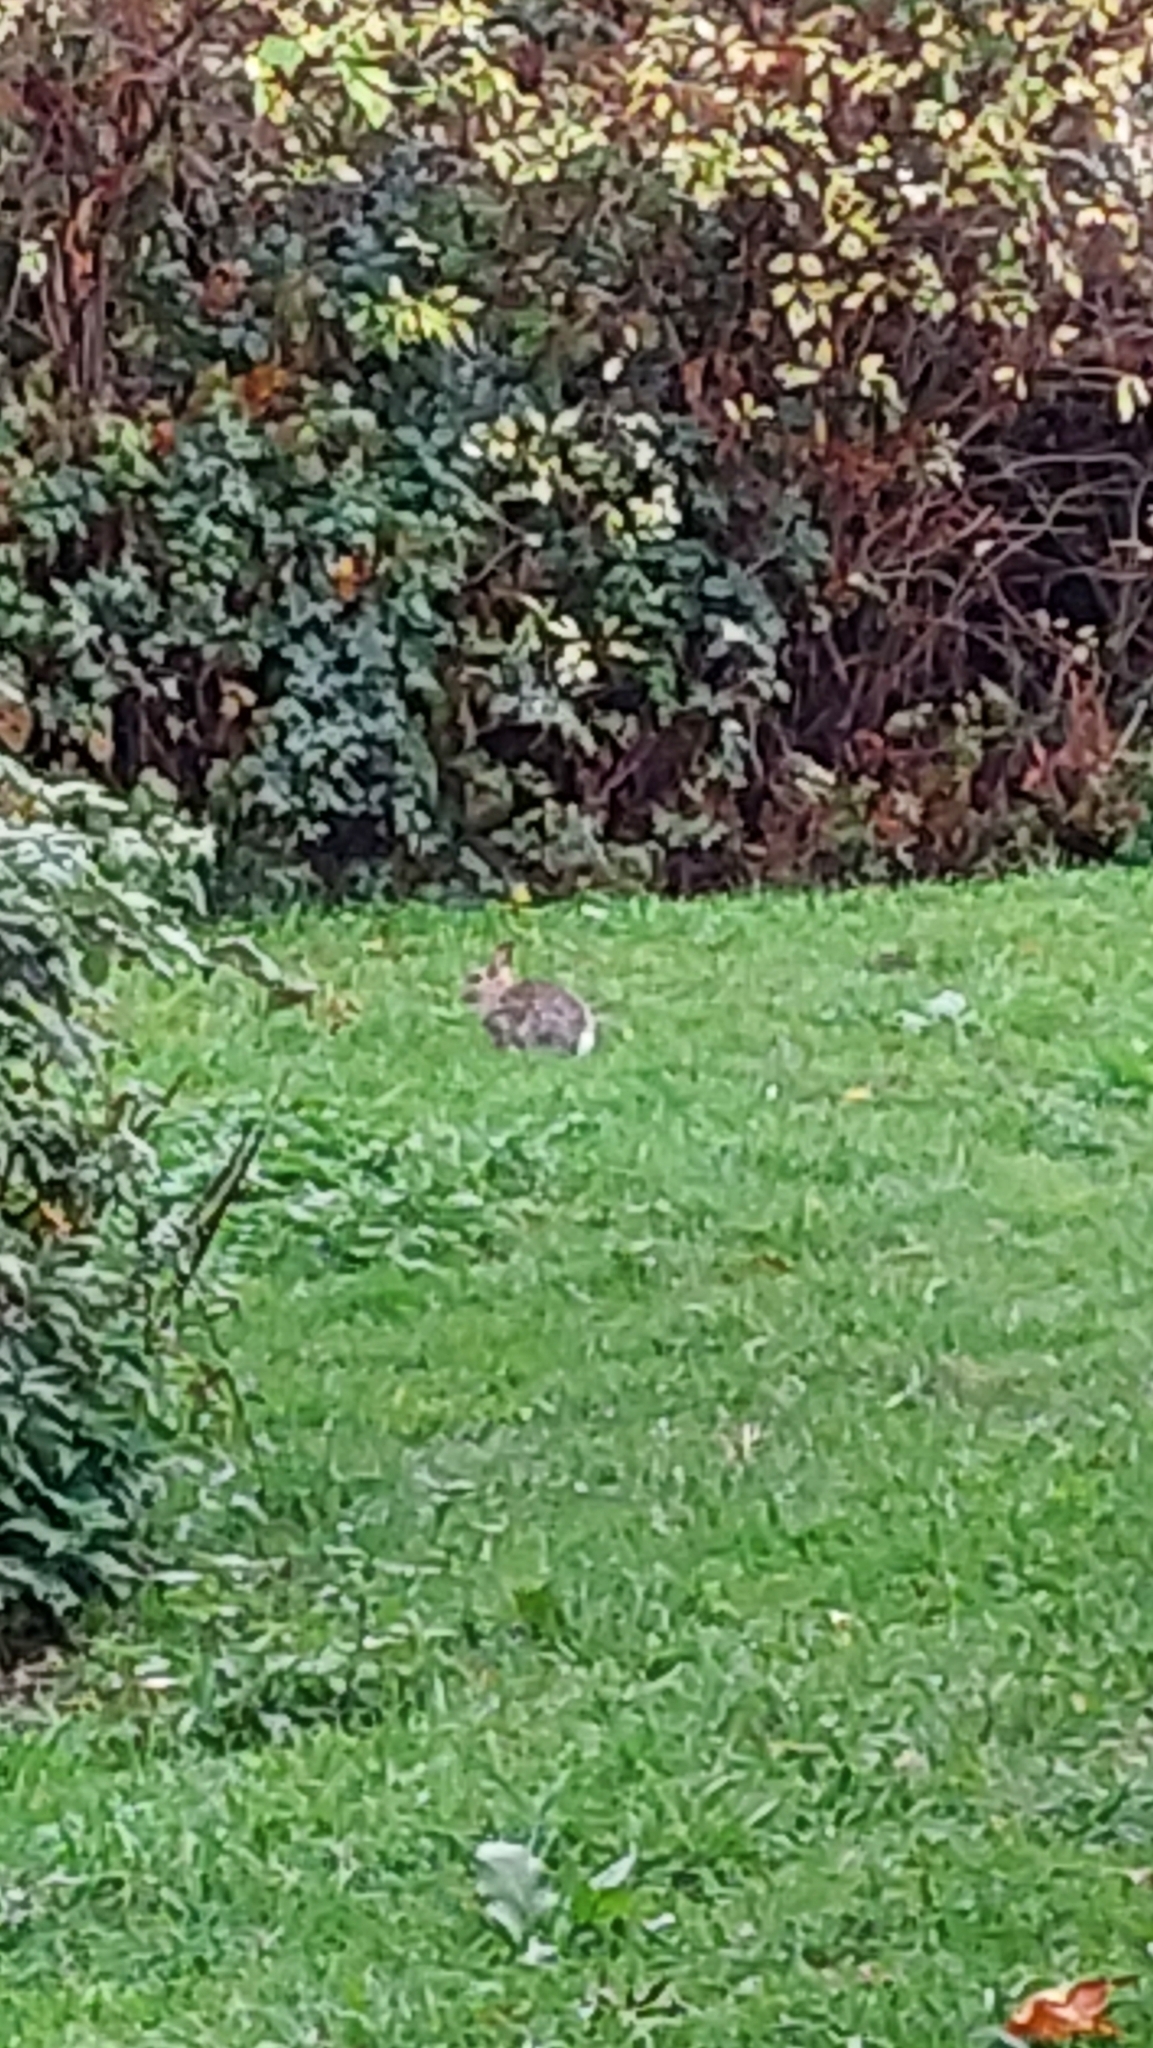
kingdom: Animalia
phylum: Chordata
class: Mammalia
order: Lagomorpha
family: Leporidae
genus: Oryctolagus
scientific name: Oryctolagus cuniculus
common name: European rabbit
